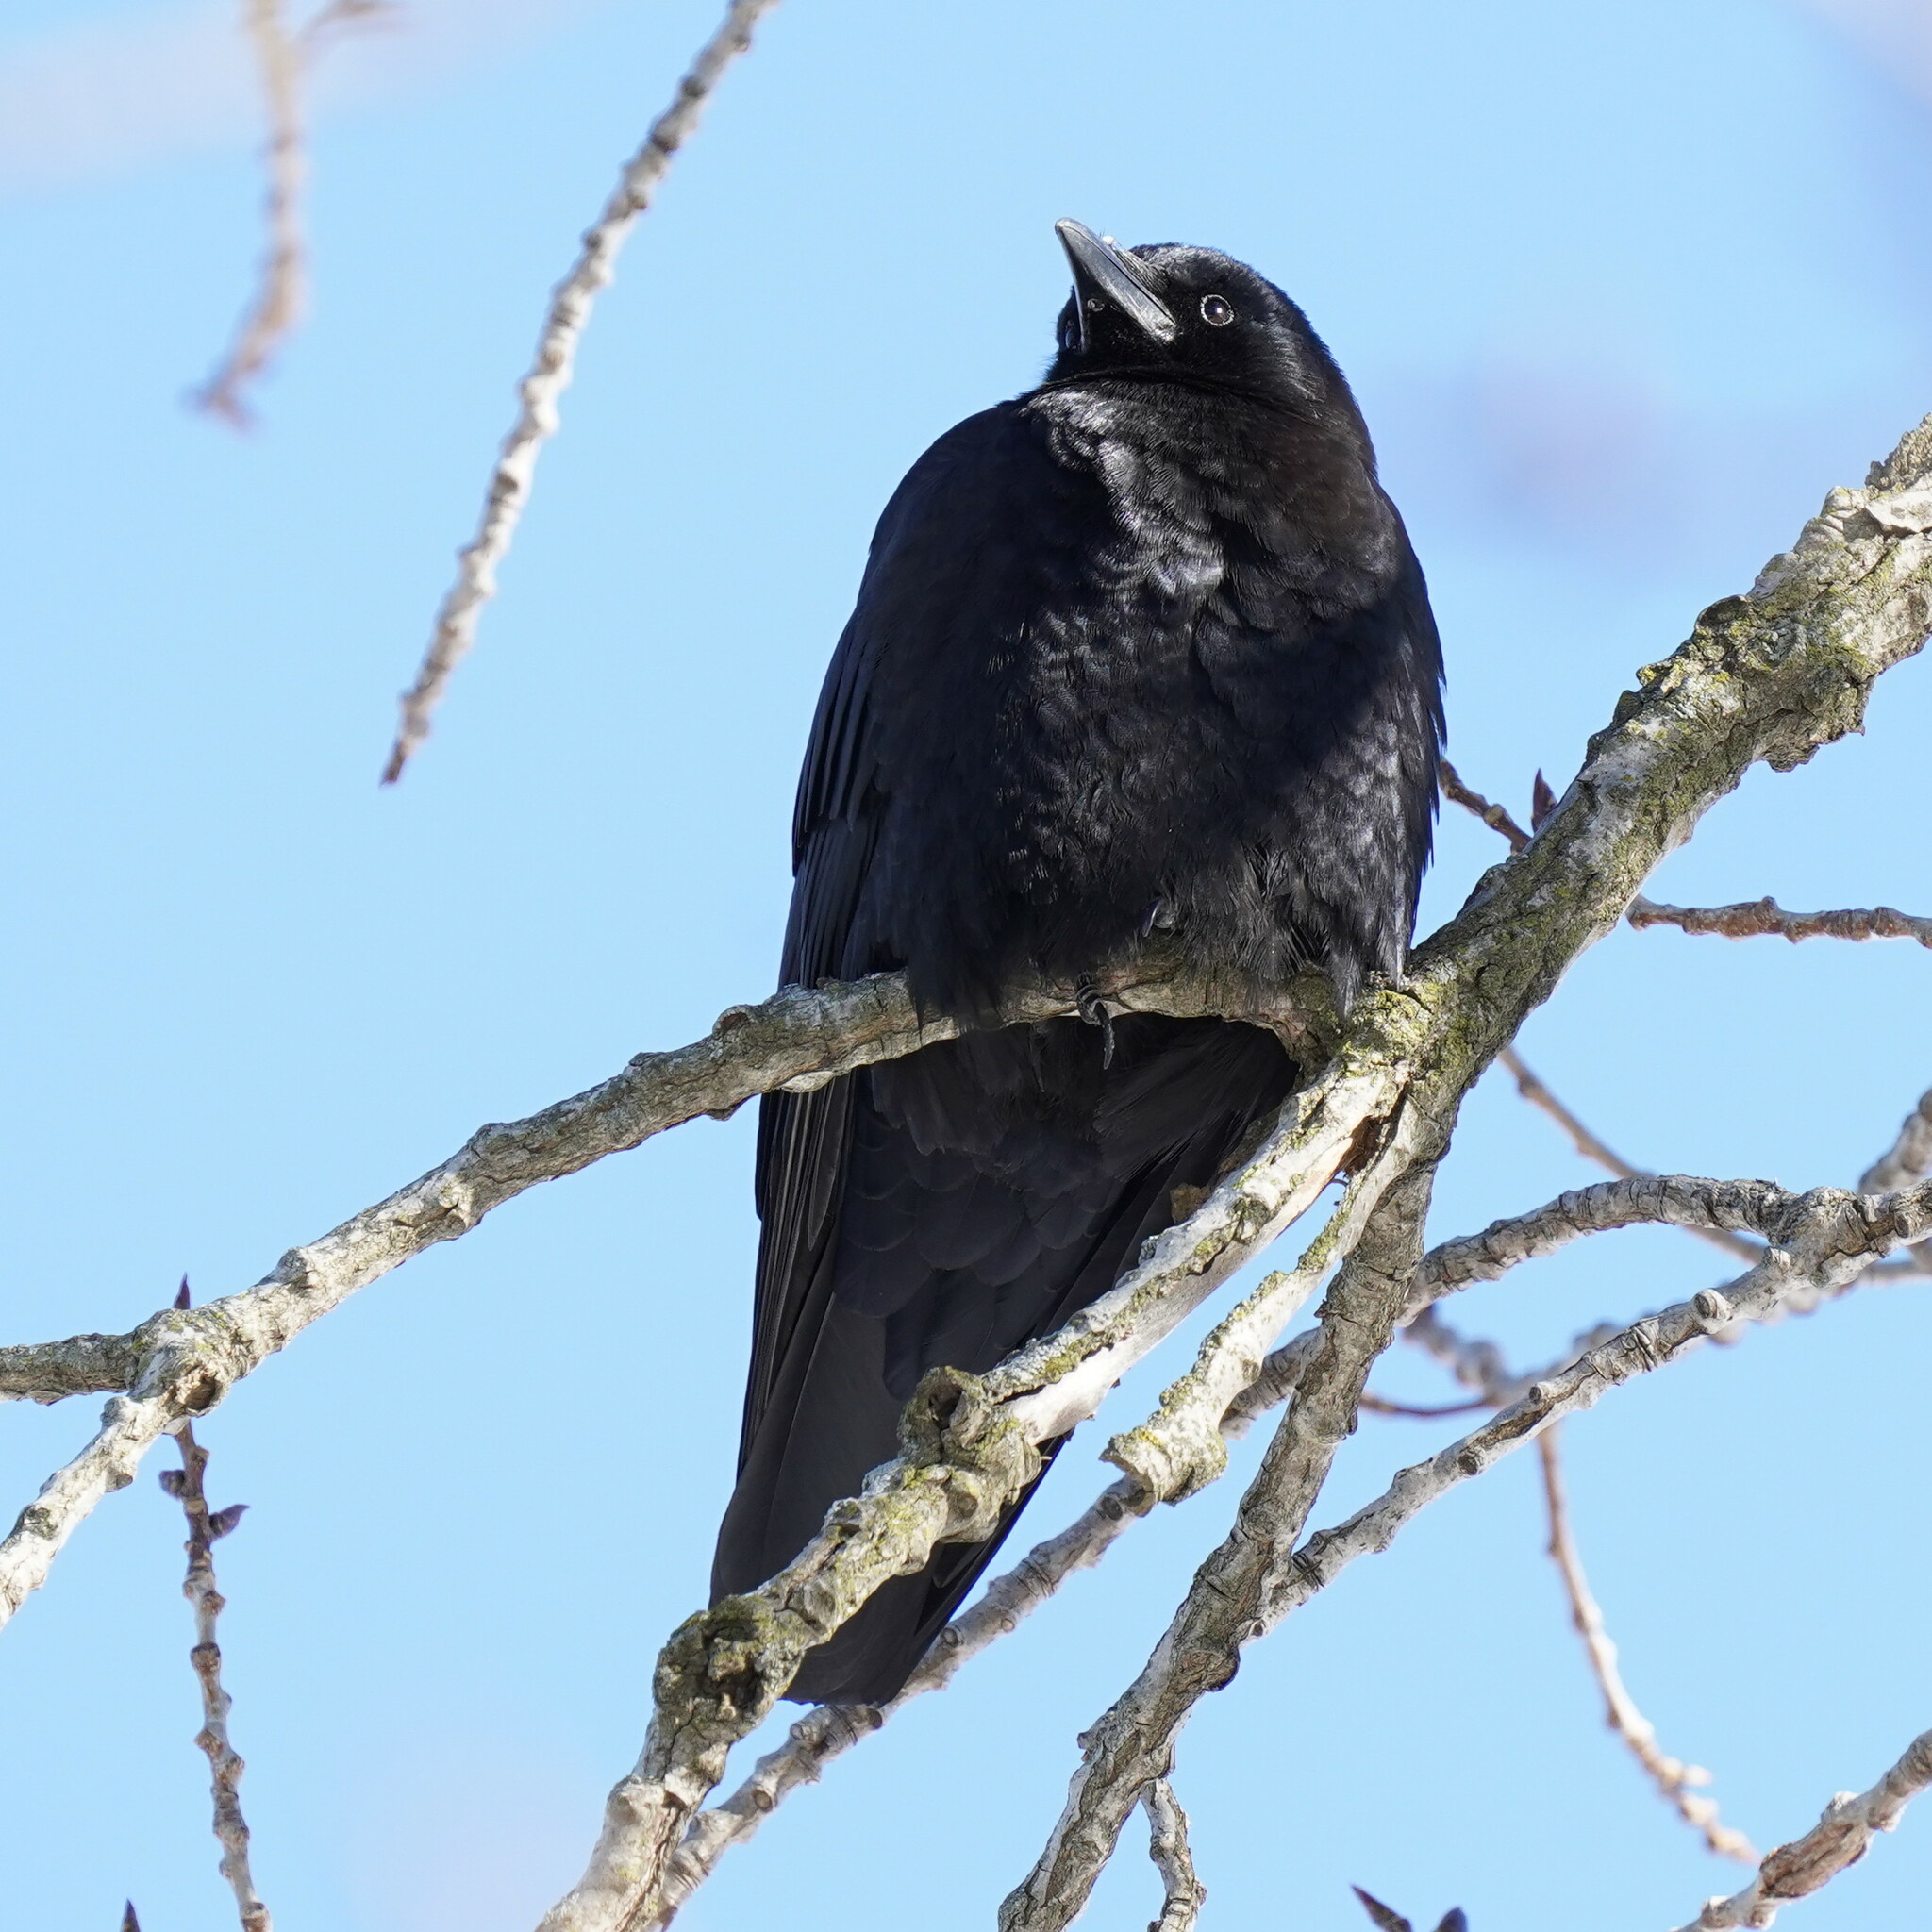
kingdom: Animalia
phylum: Chordata
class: Aves
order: Passeriformes
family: Corvidae
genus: Corvus
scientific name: Corvus brachyrhynchos
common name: American crow
